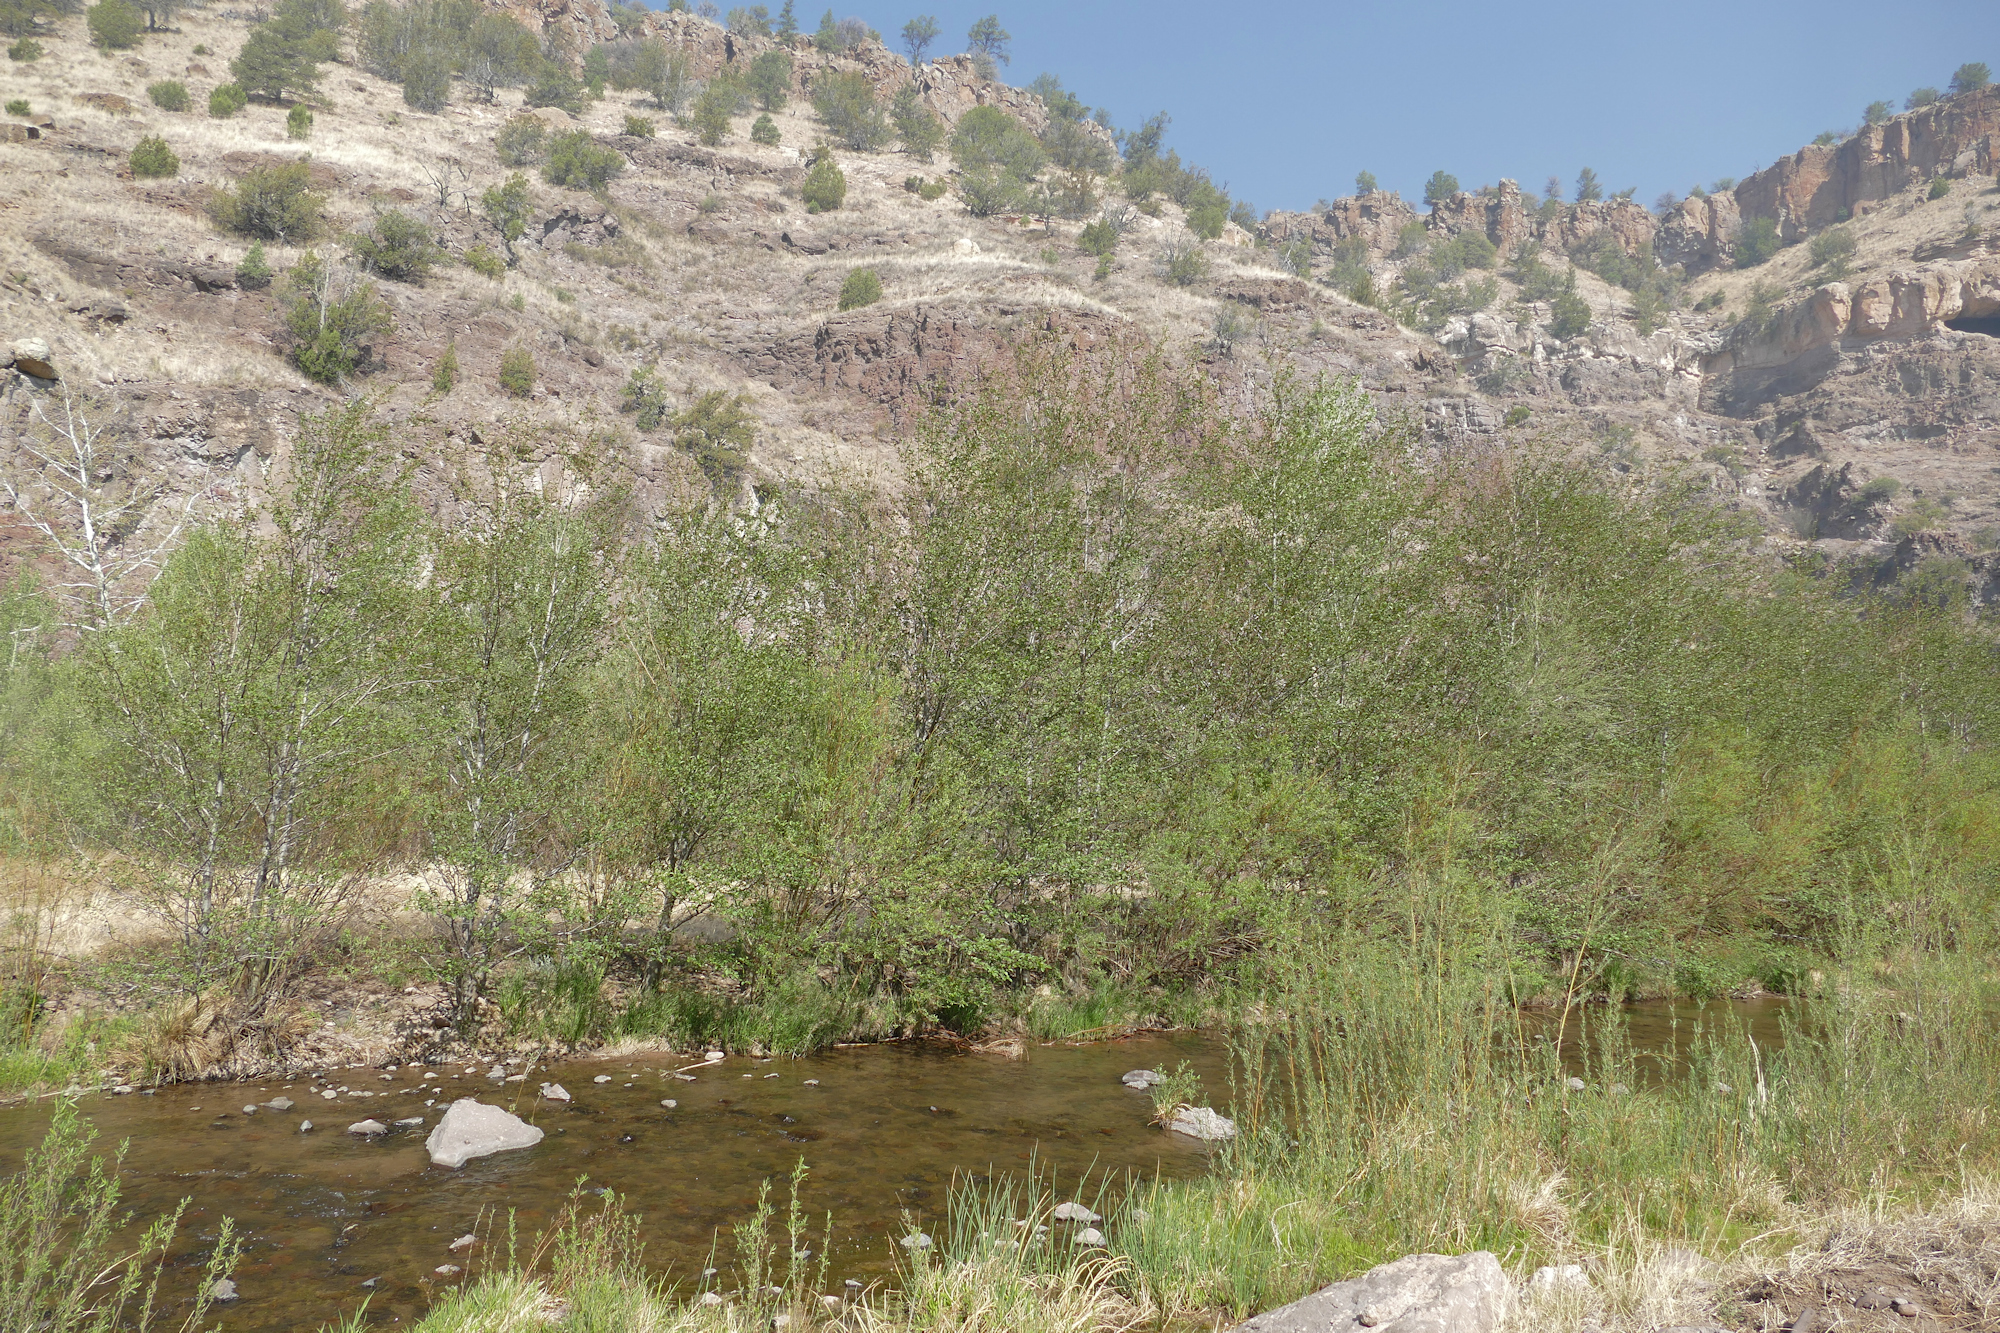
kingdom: Plantae
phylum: Tracheophyta
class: Magnoliopsida
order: Fagales
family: Betulaceae
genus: Alnus
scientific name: Alnus oblongifolia
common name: Arizona alder
